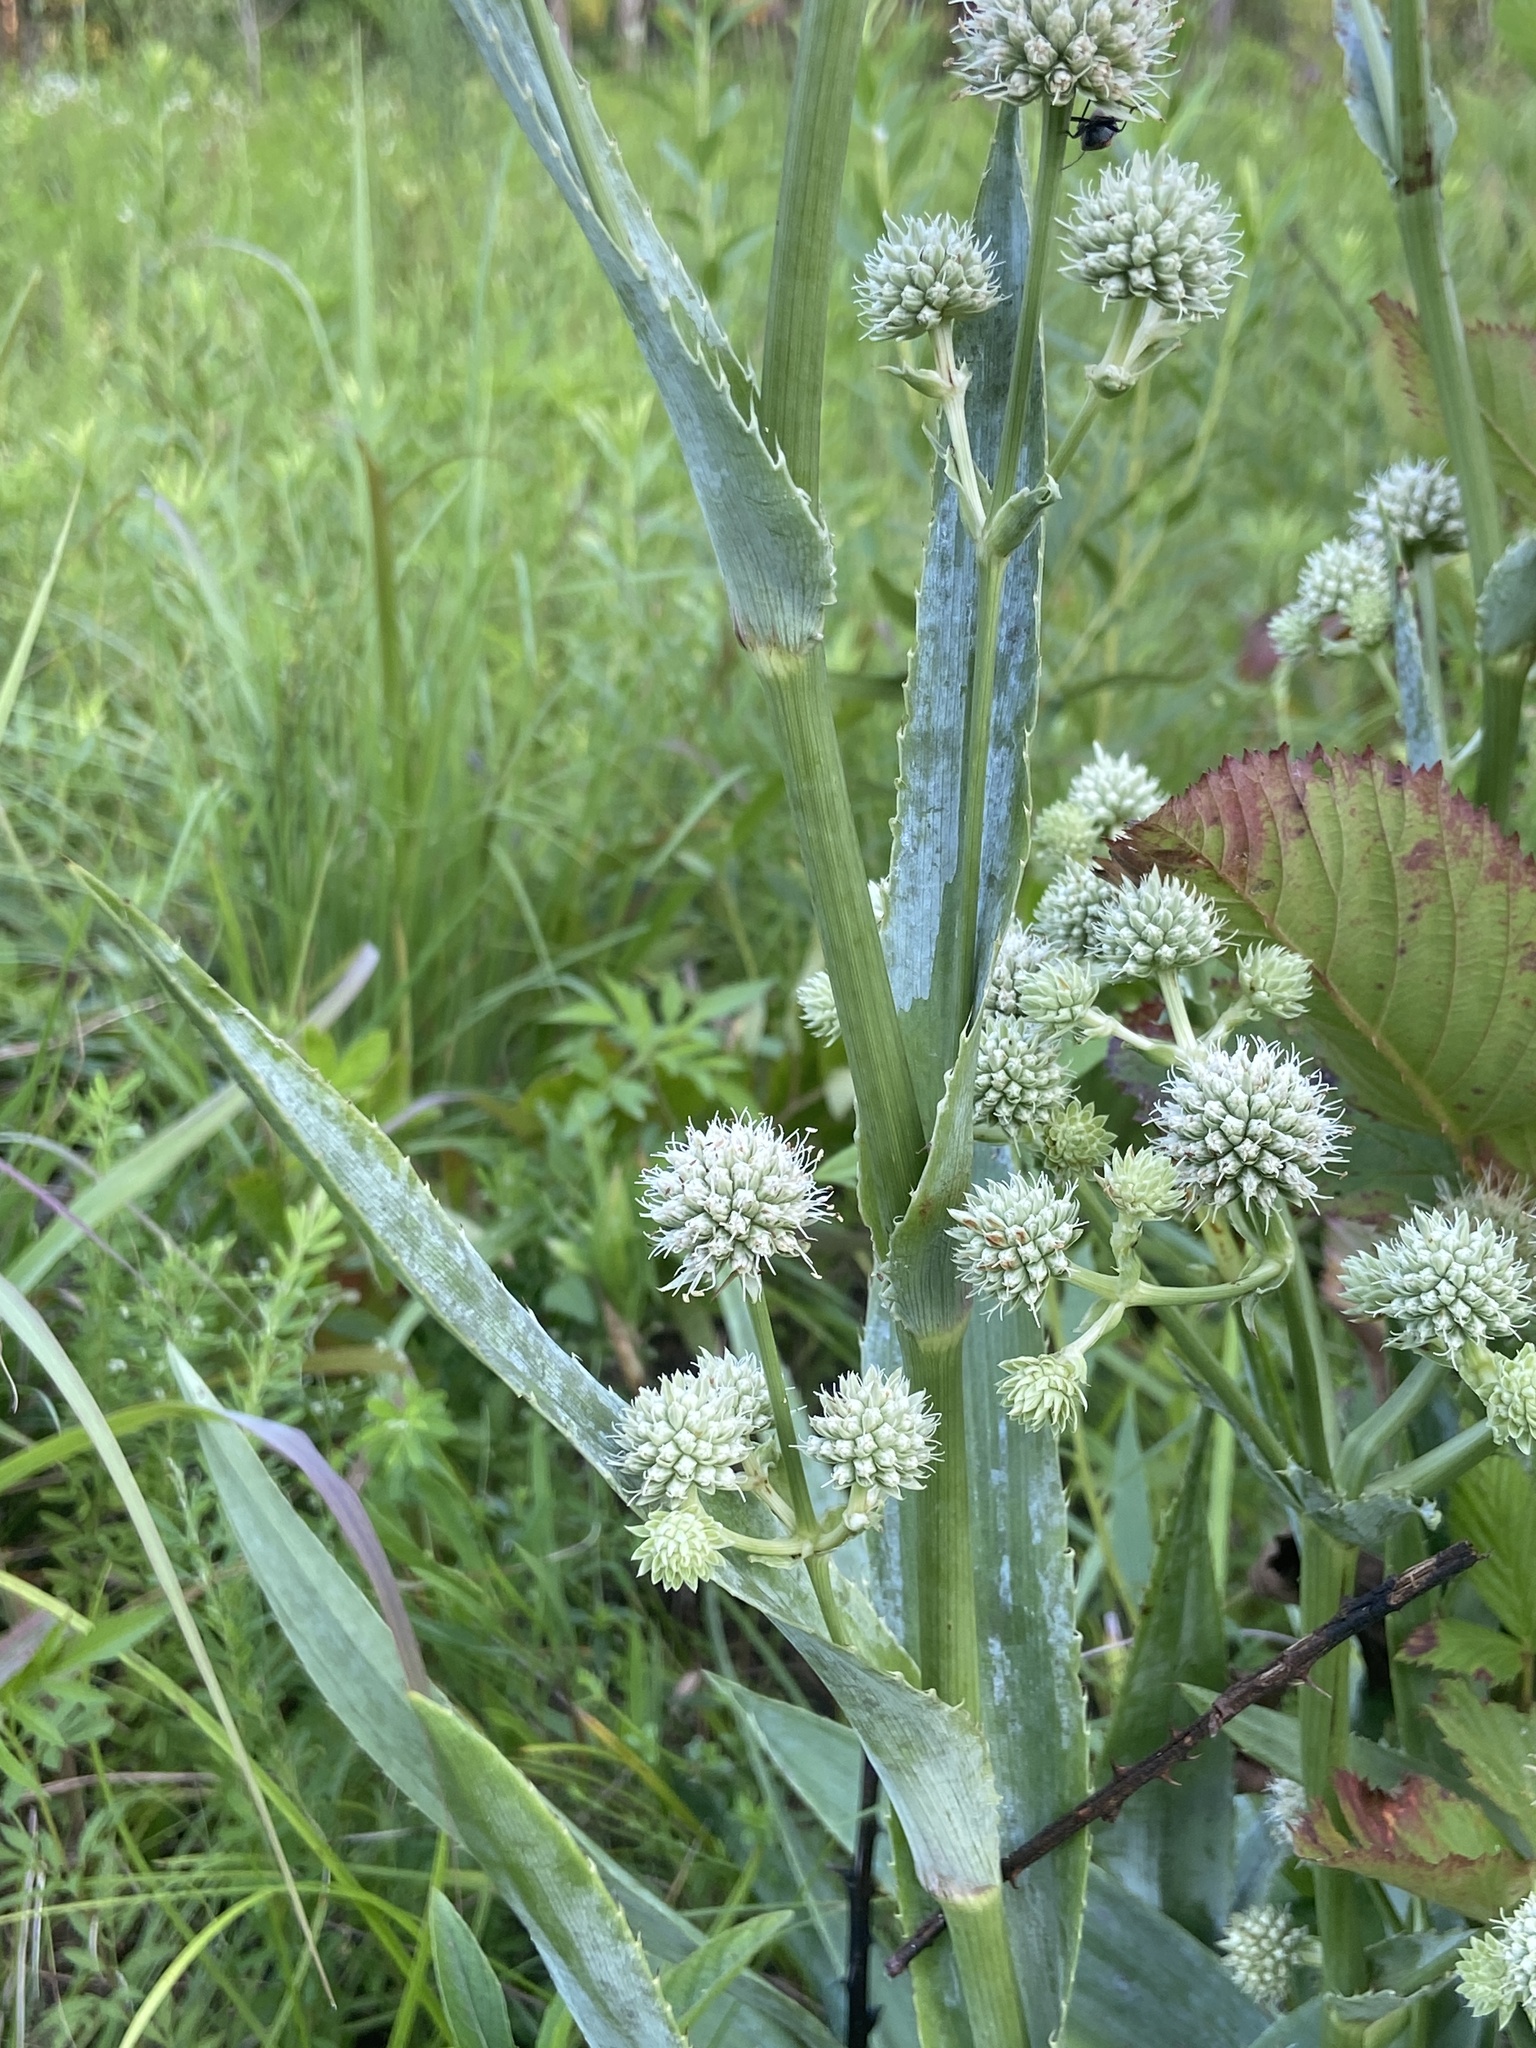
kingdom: Plantae
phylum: Tracheophyta
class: Magnoliopsida
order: Apiales
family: Apiaceae
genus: Eryngium
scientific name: Eryngium yuccifolium
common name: Button eryngo
